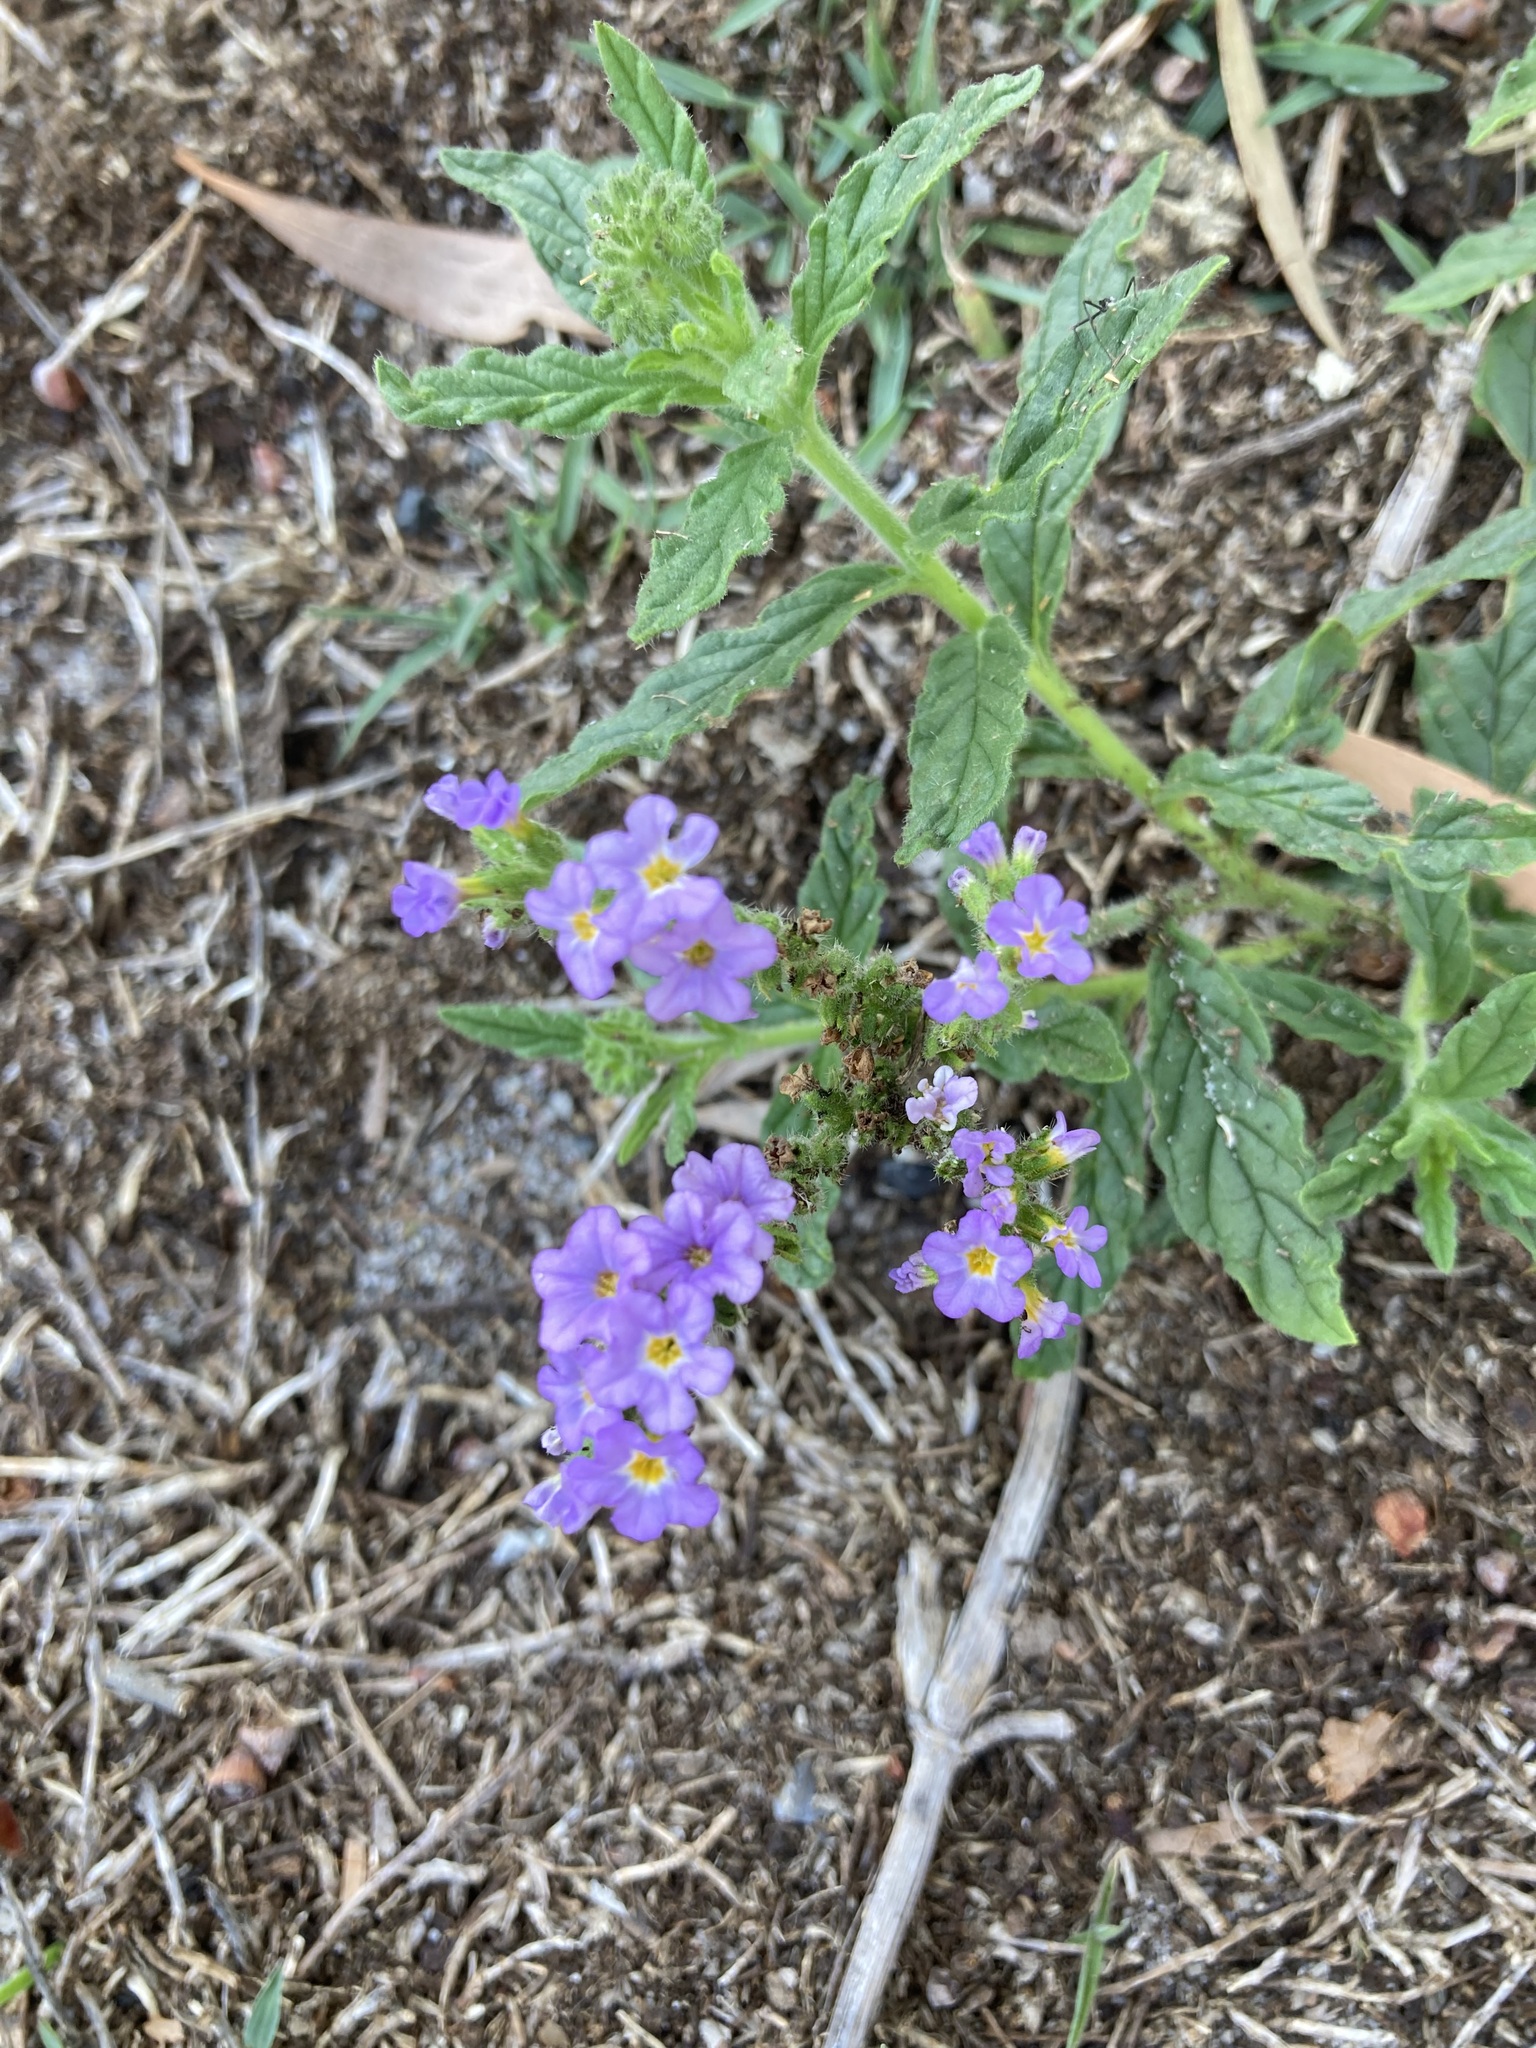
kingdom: Plantae
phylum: Tracheophyta
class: Magnoliopsida
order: Boraginales
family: Heliotropiaceae
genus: Heliotropium
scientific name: Heliotropium amplexicaule
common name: Clasping heliotrope
